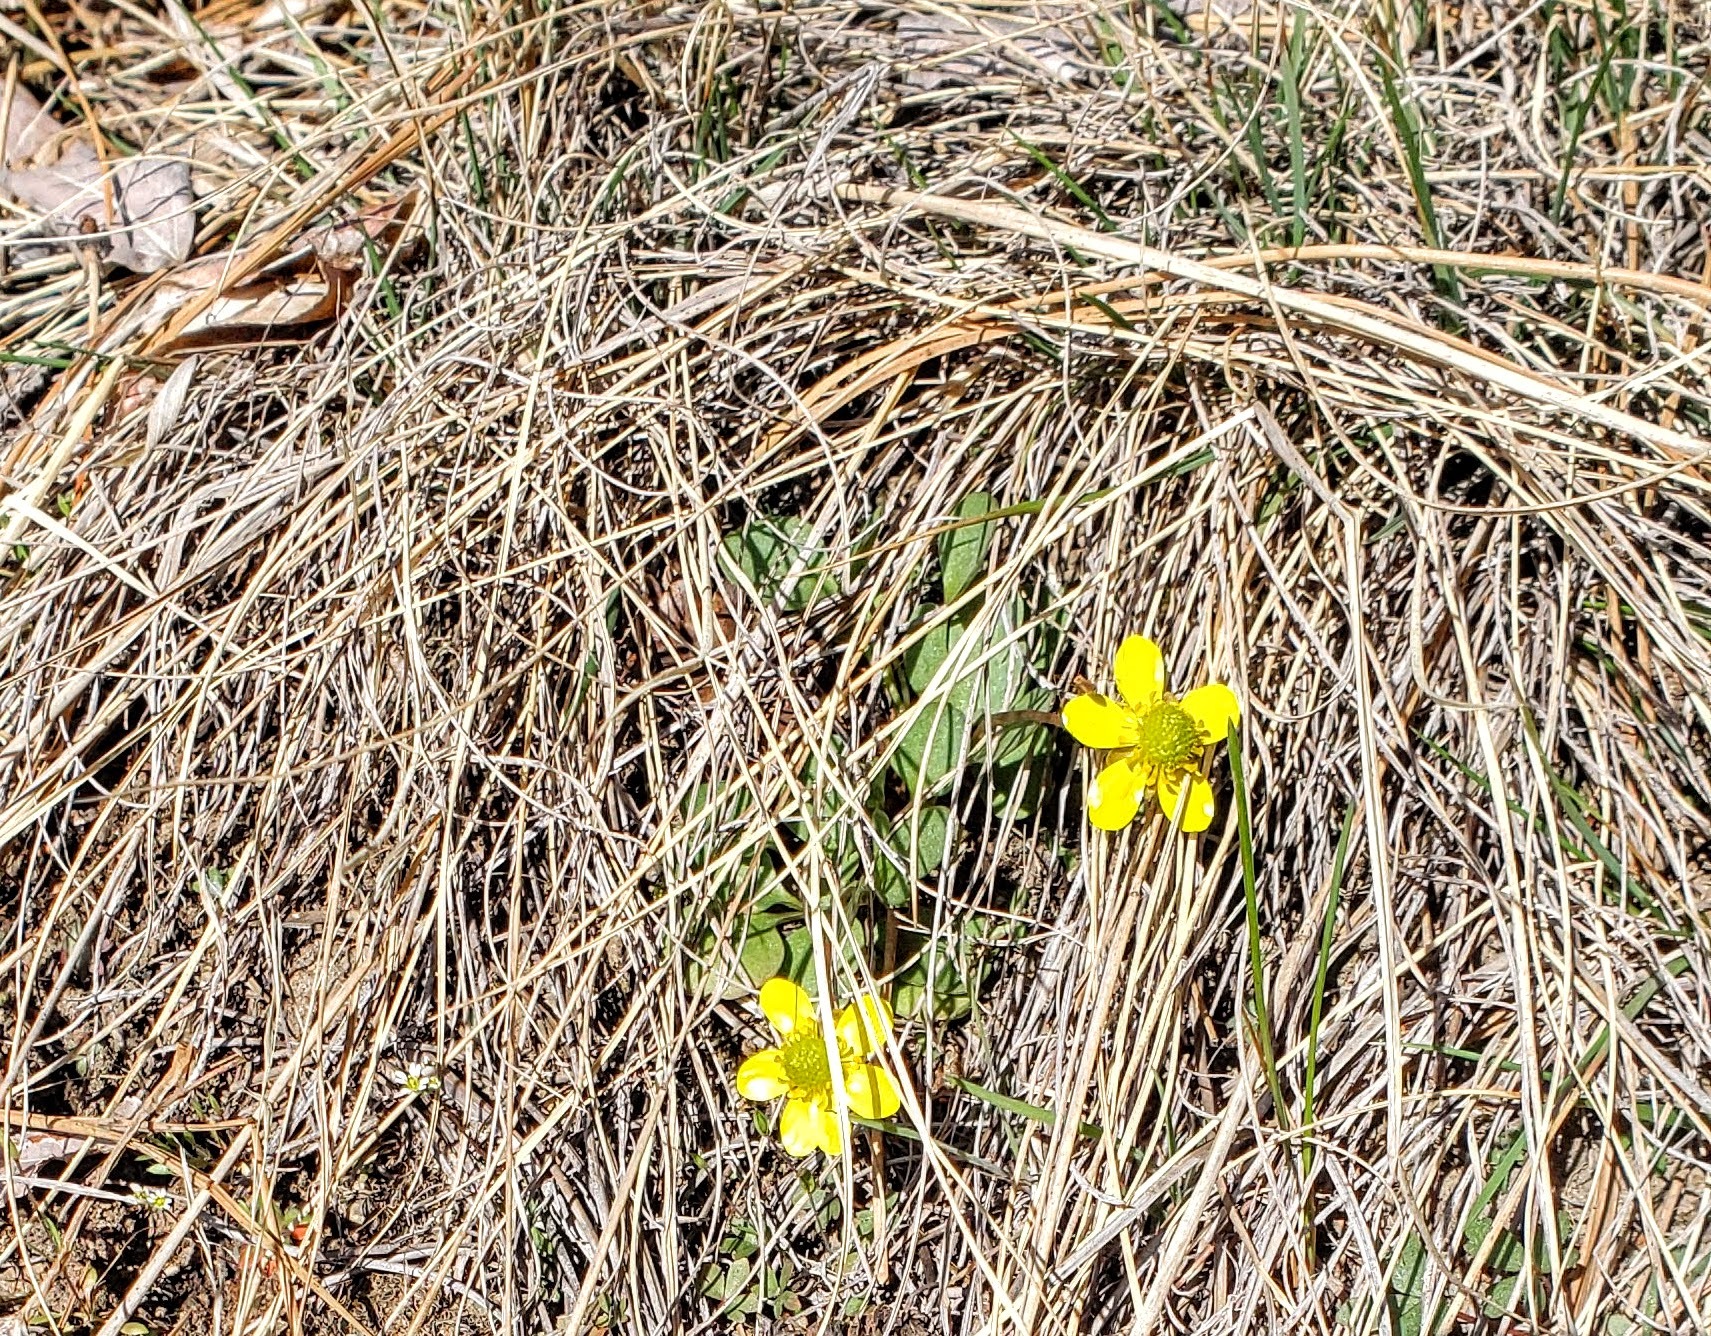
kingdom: Plantae
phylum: Tracheophyta
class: Magnoliopsida
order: Ranunculales
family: Ranunculaceae
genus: Ranunculus
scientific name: Ranunculus glaberrimus
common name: Sagebrush buttercup
